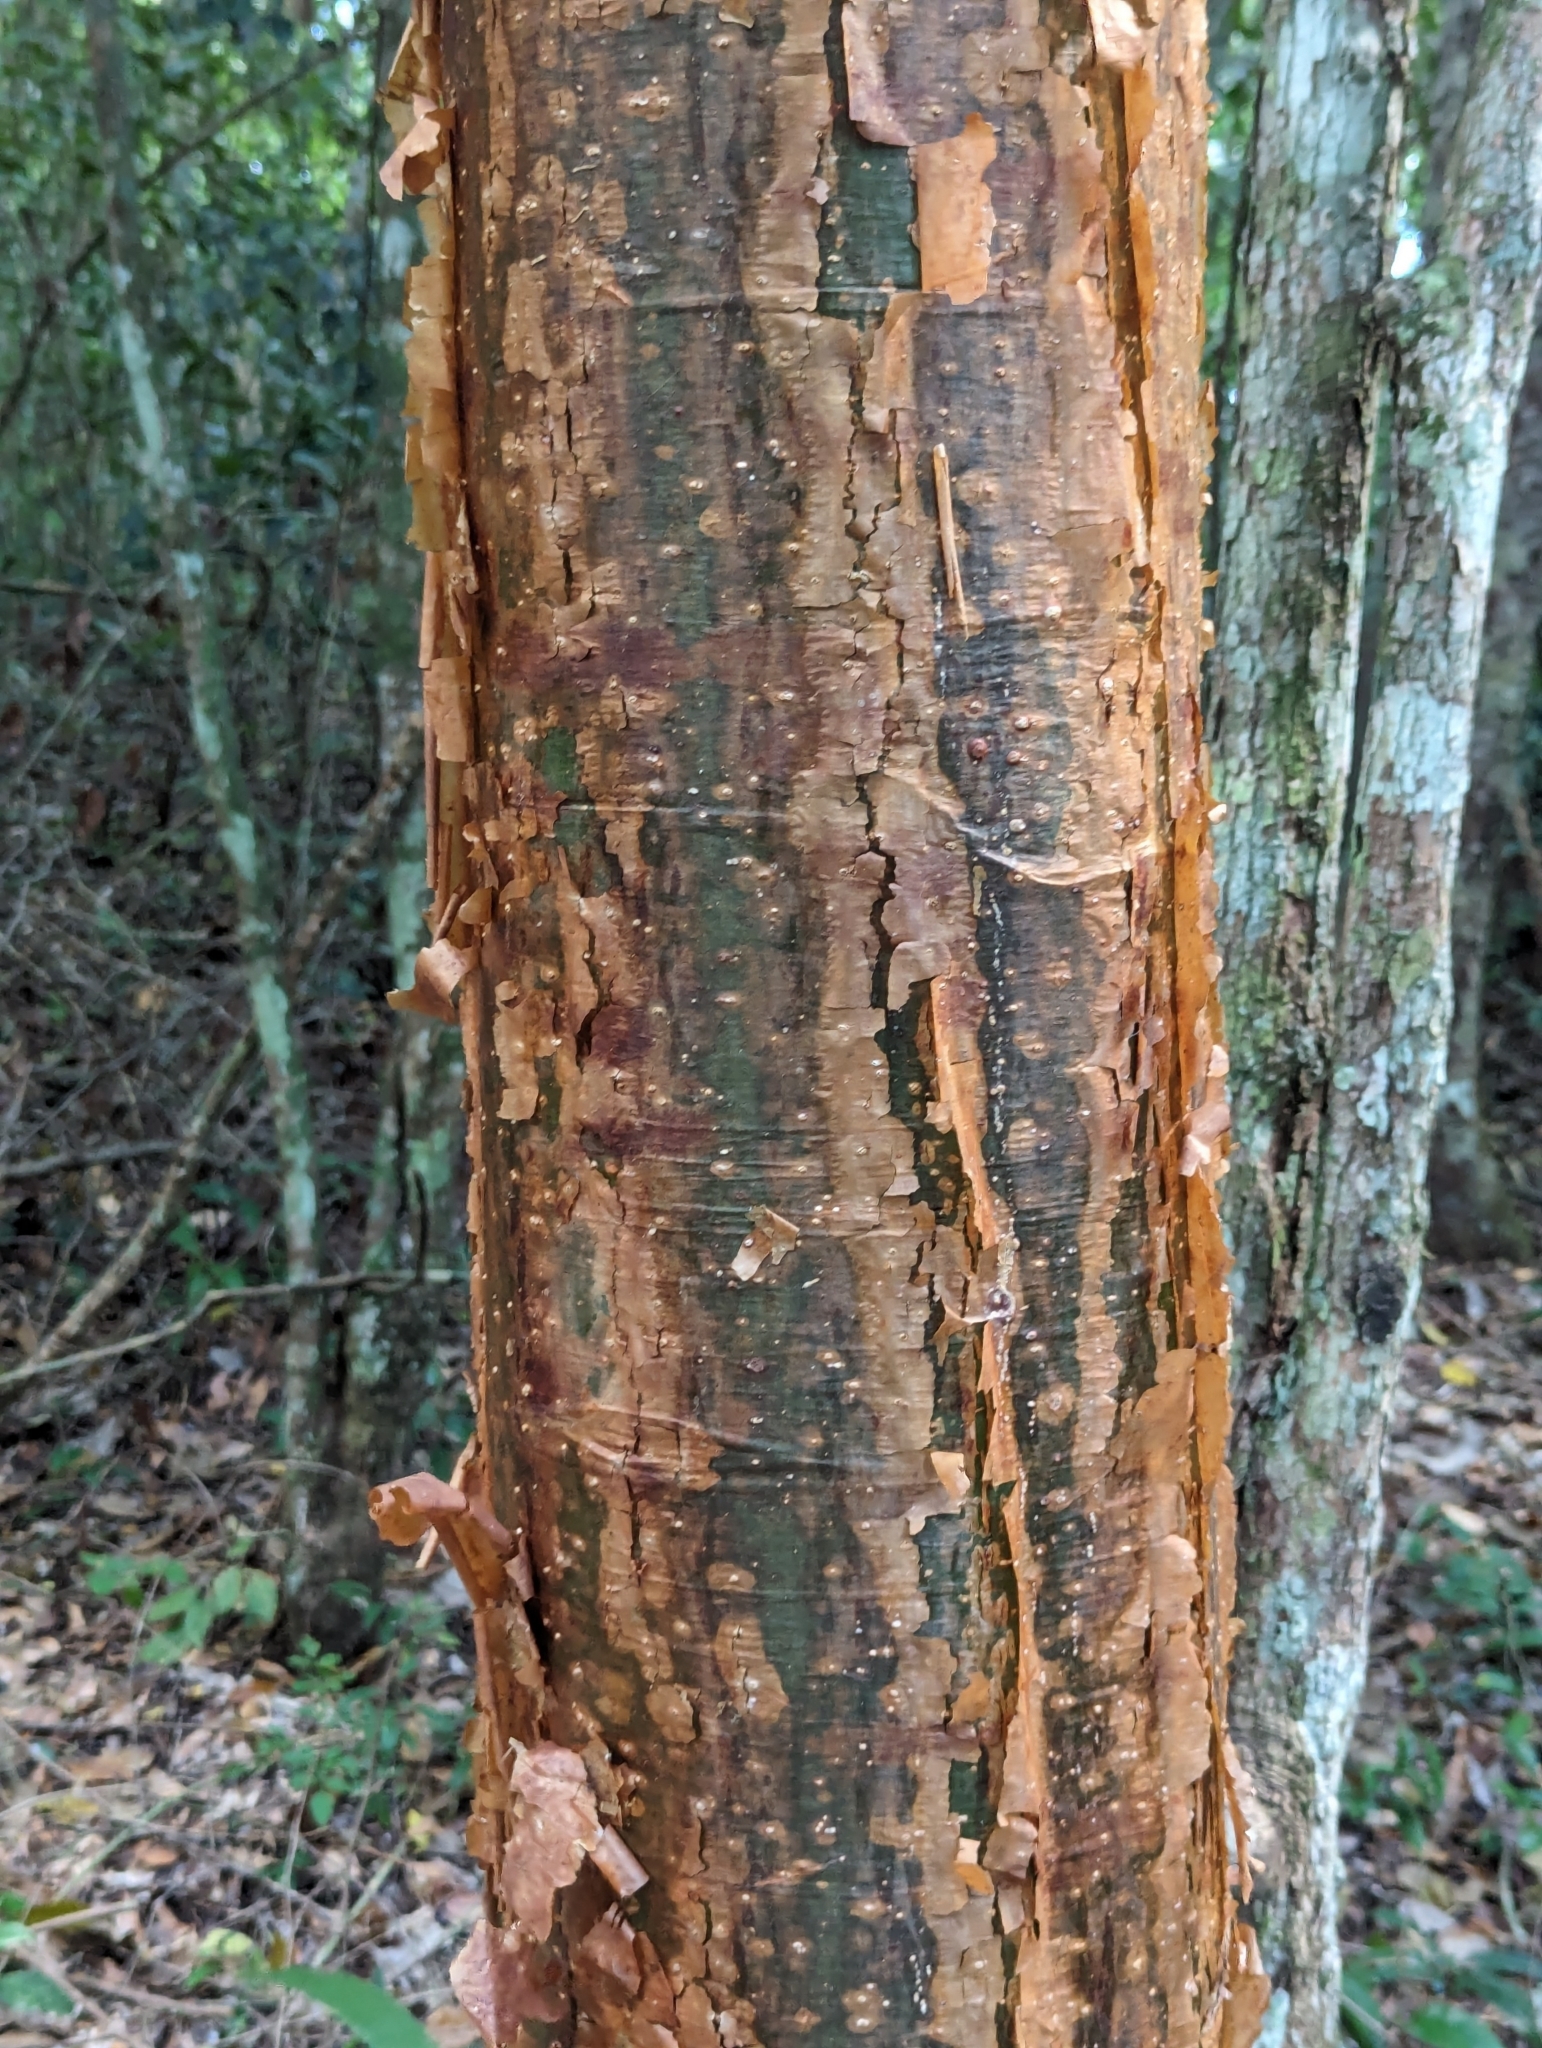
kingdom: Plantae
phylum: Tracheophyta
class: Magnoliopsida
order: Sapindales
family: Burseraceae
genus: Bursera
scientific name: Bursera simaruba
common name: Turpentine tree
